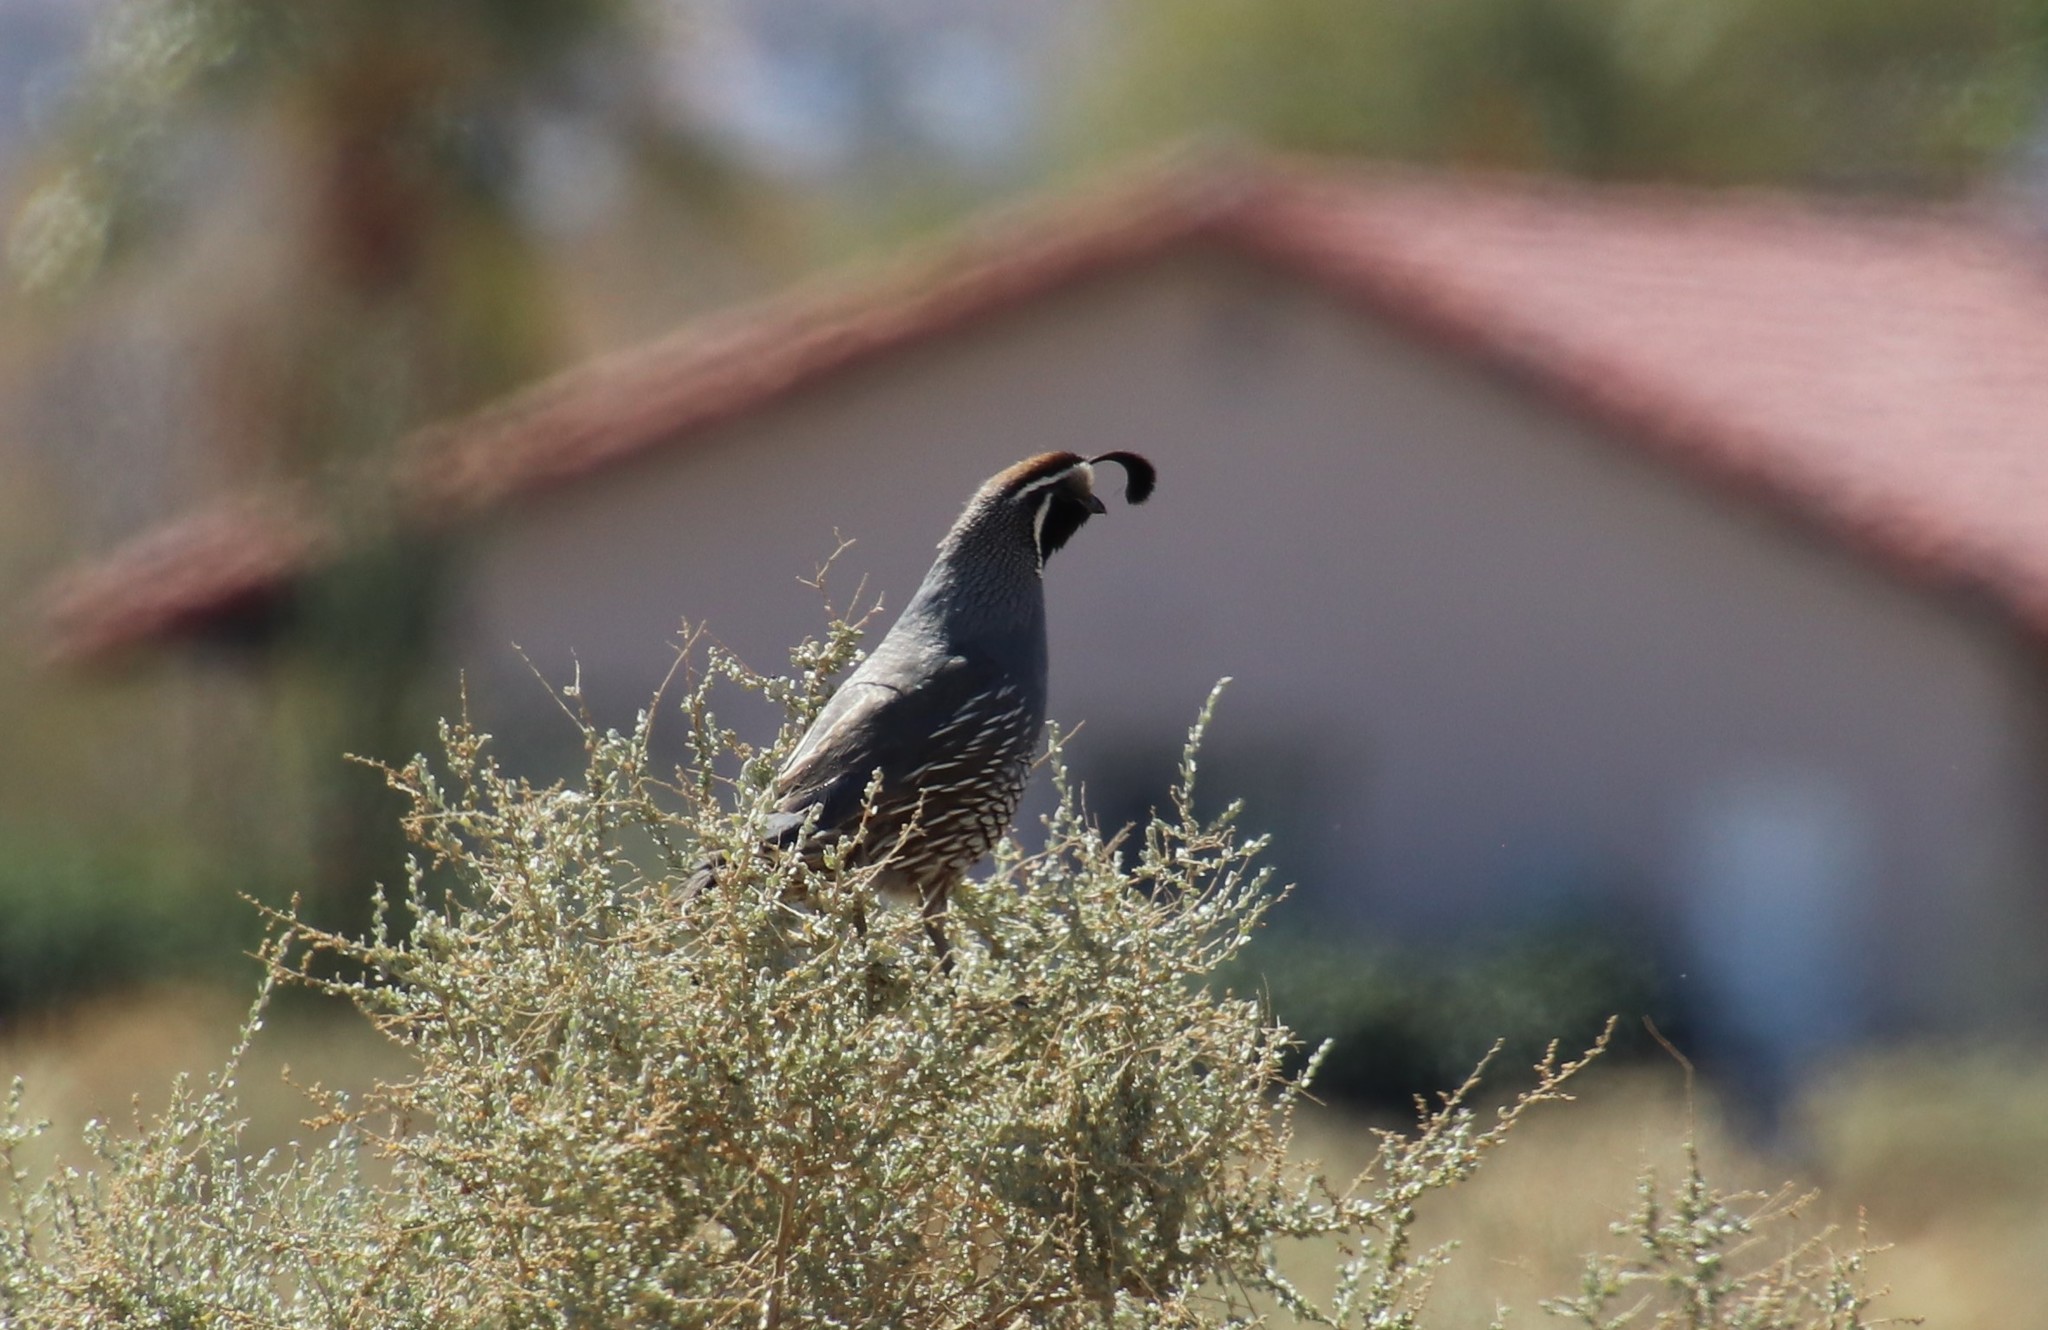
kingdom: Animalia
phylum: Chordata
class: Aves
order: Galliformes
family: Odontophoridae
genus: Callipepla
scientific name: Callipepla californica
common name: California quail
